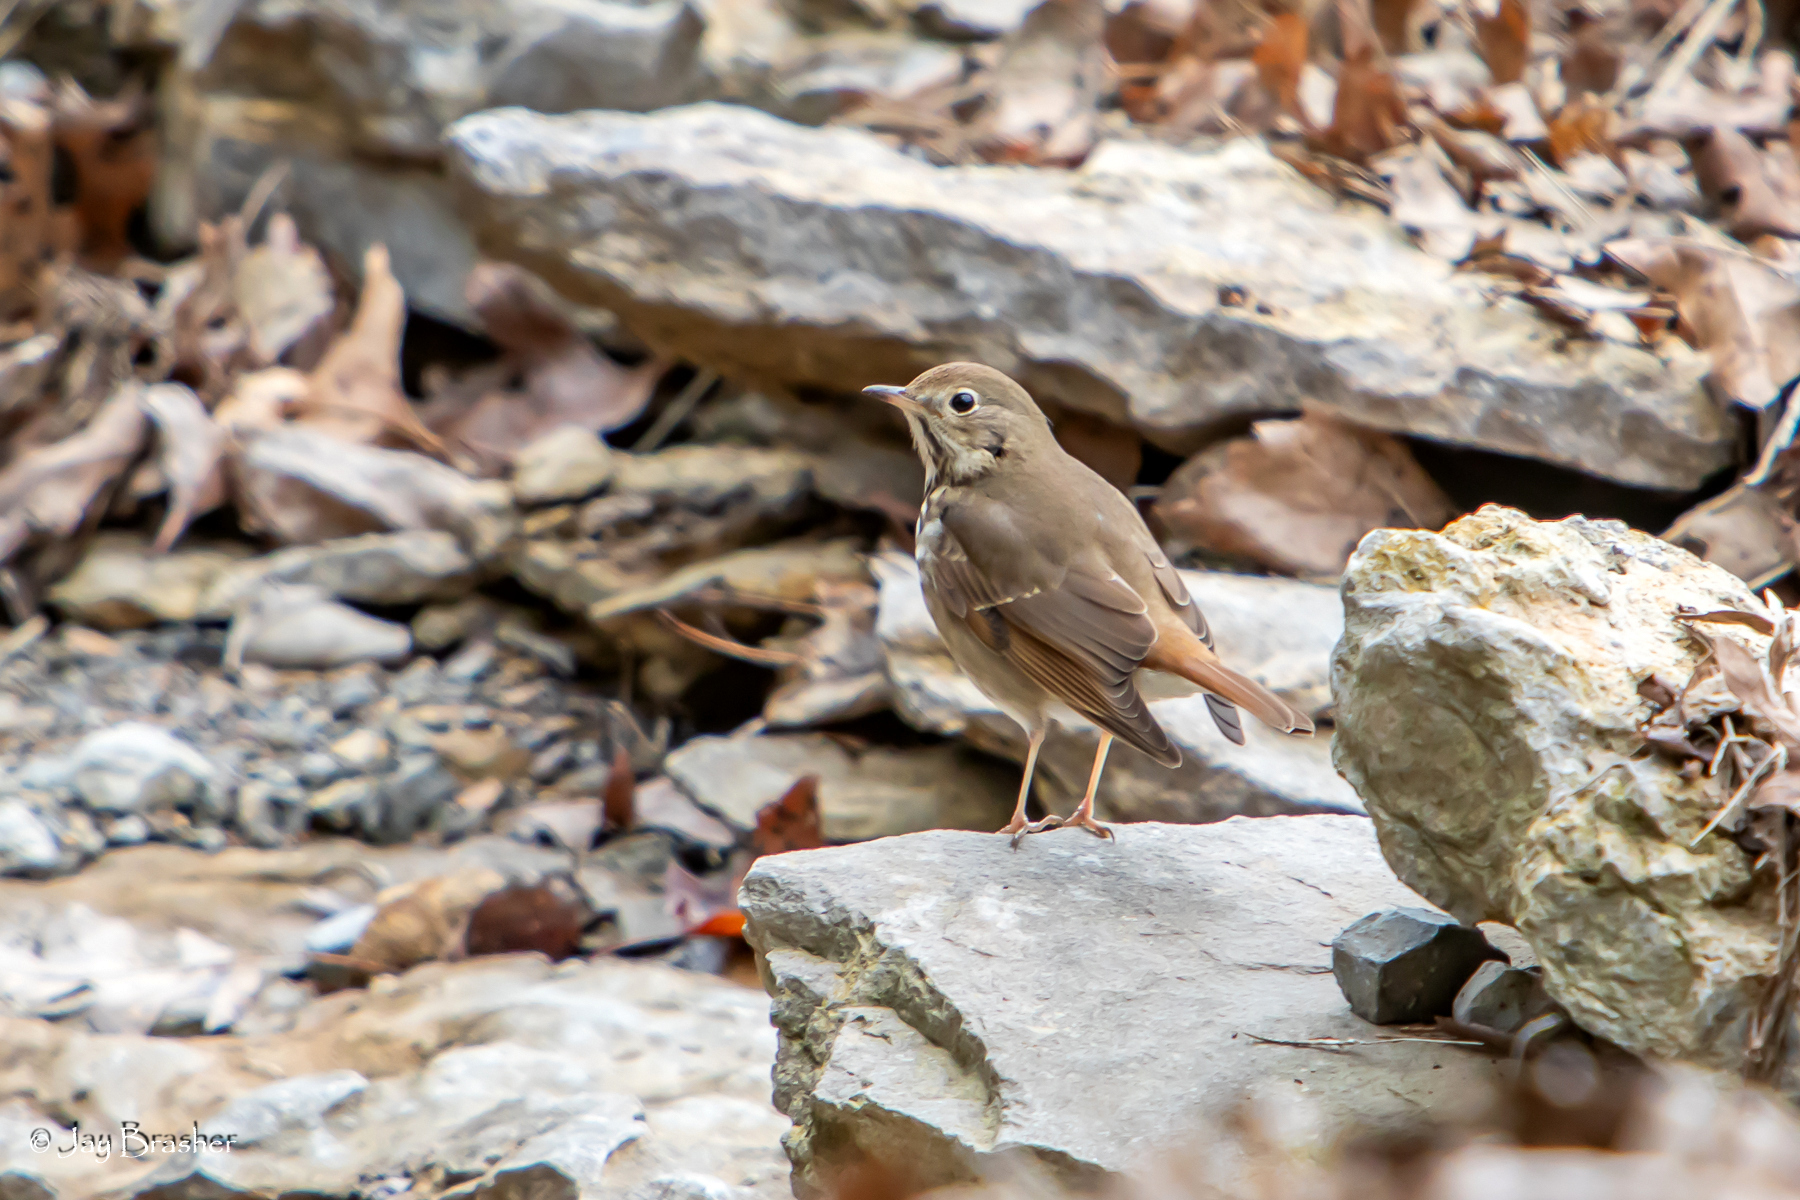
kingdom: Animalia
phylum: Chordata
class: Aves
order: Passeriformes
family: Turdidae
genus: Catharus
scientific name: Catharus guttatus
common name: Hermit thrush
